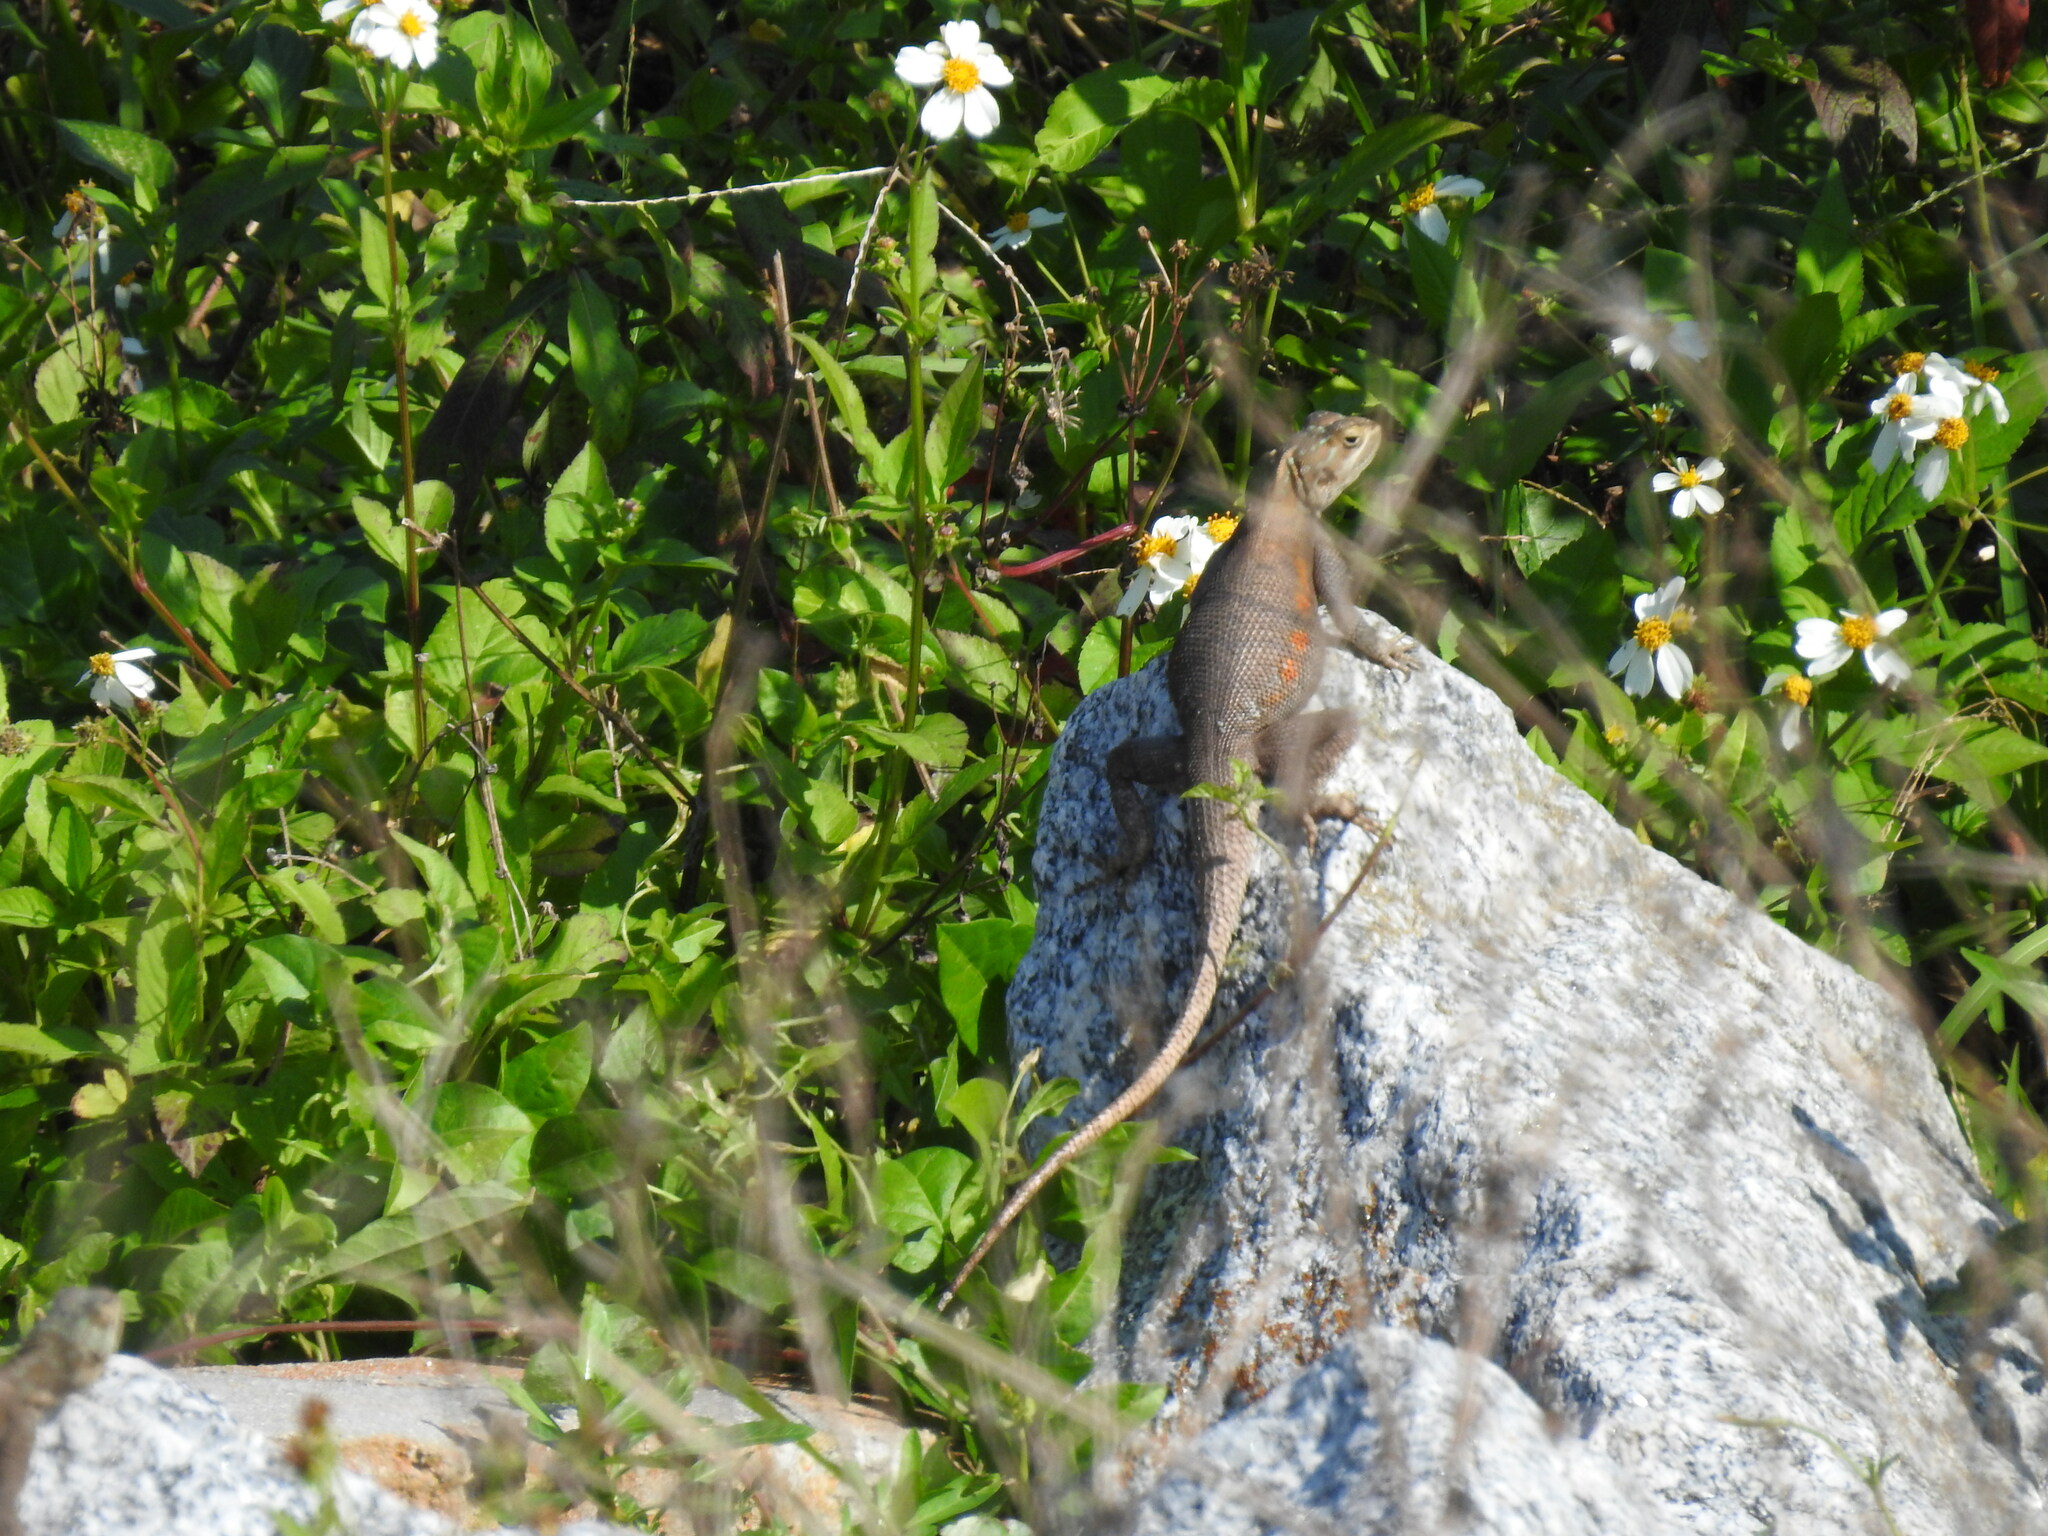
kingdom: Animalia
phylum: Chordata
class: Squamata
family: Agamidae
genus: Agama
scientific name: Agama picticauda
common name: Red-headed agama
